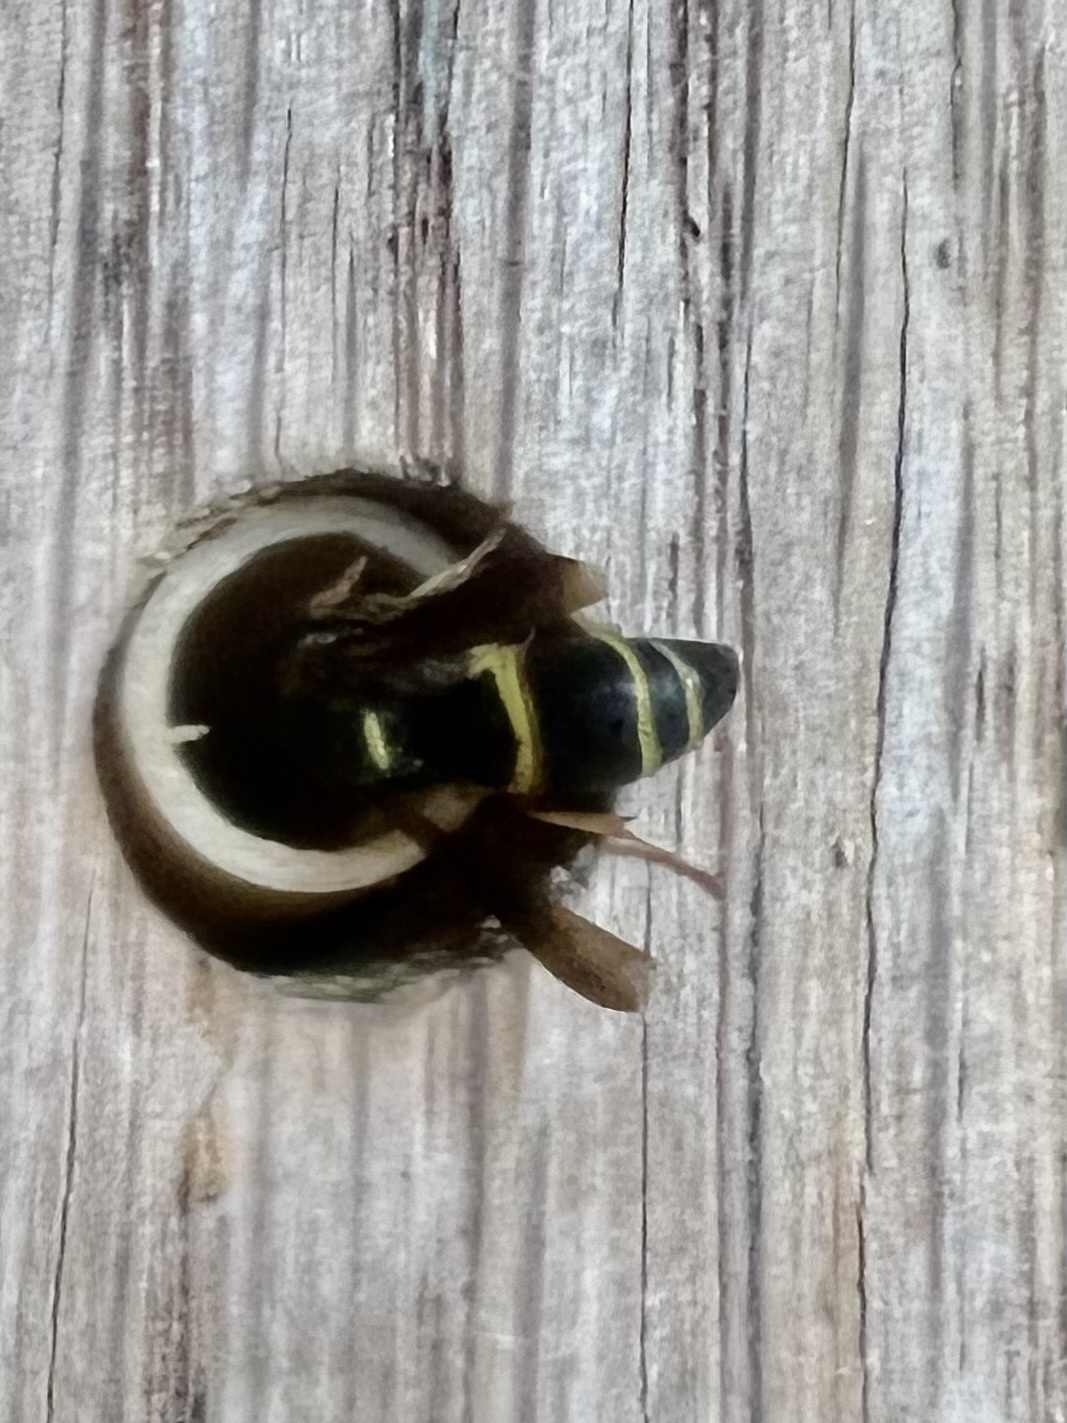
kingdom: Animalia
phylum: Arthropoda
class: Insecta
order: Hymenoptera
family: Eumenidae
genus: Euodynerus
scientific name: Euodynerus
